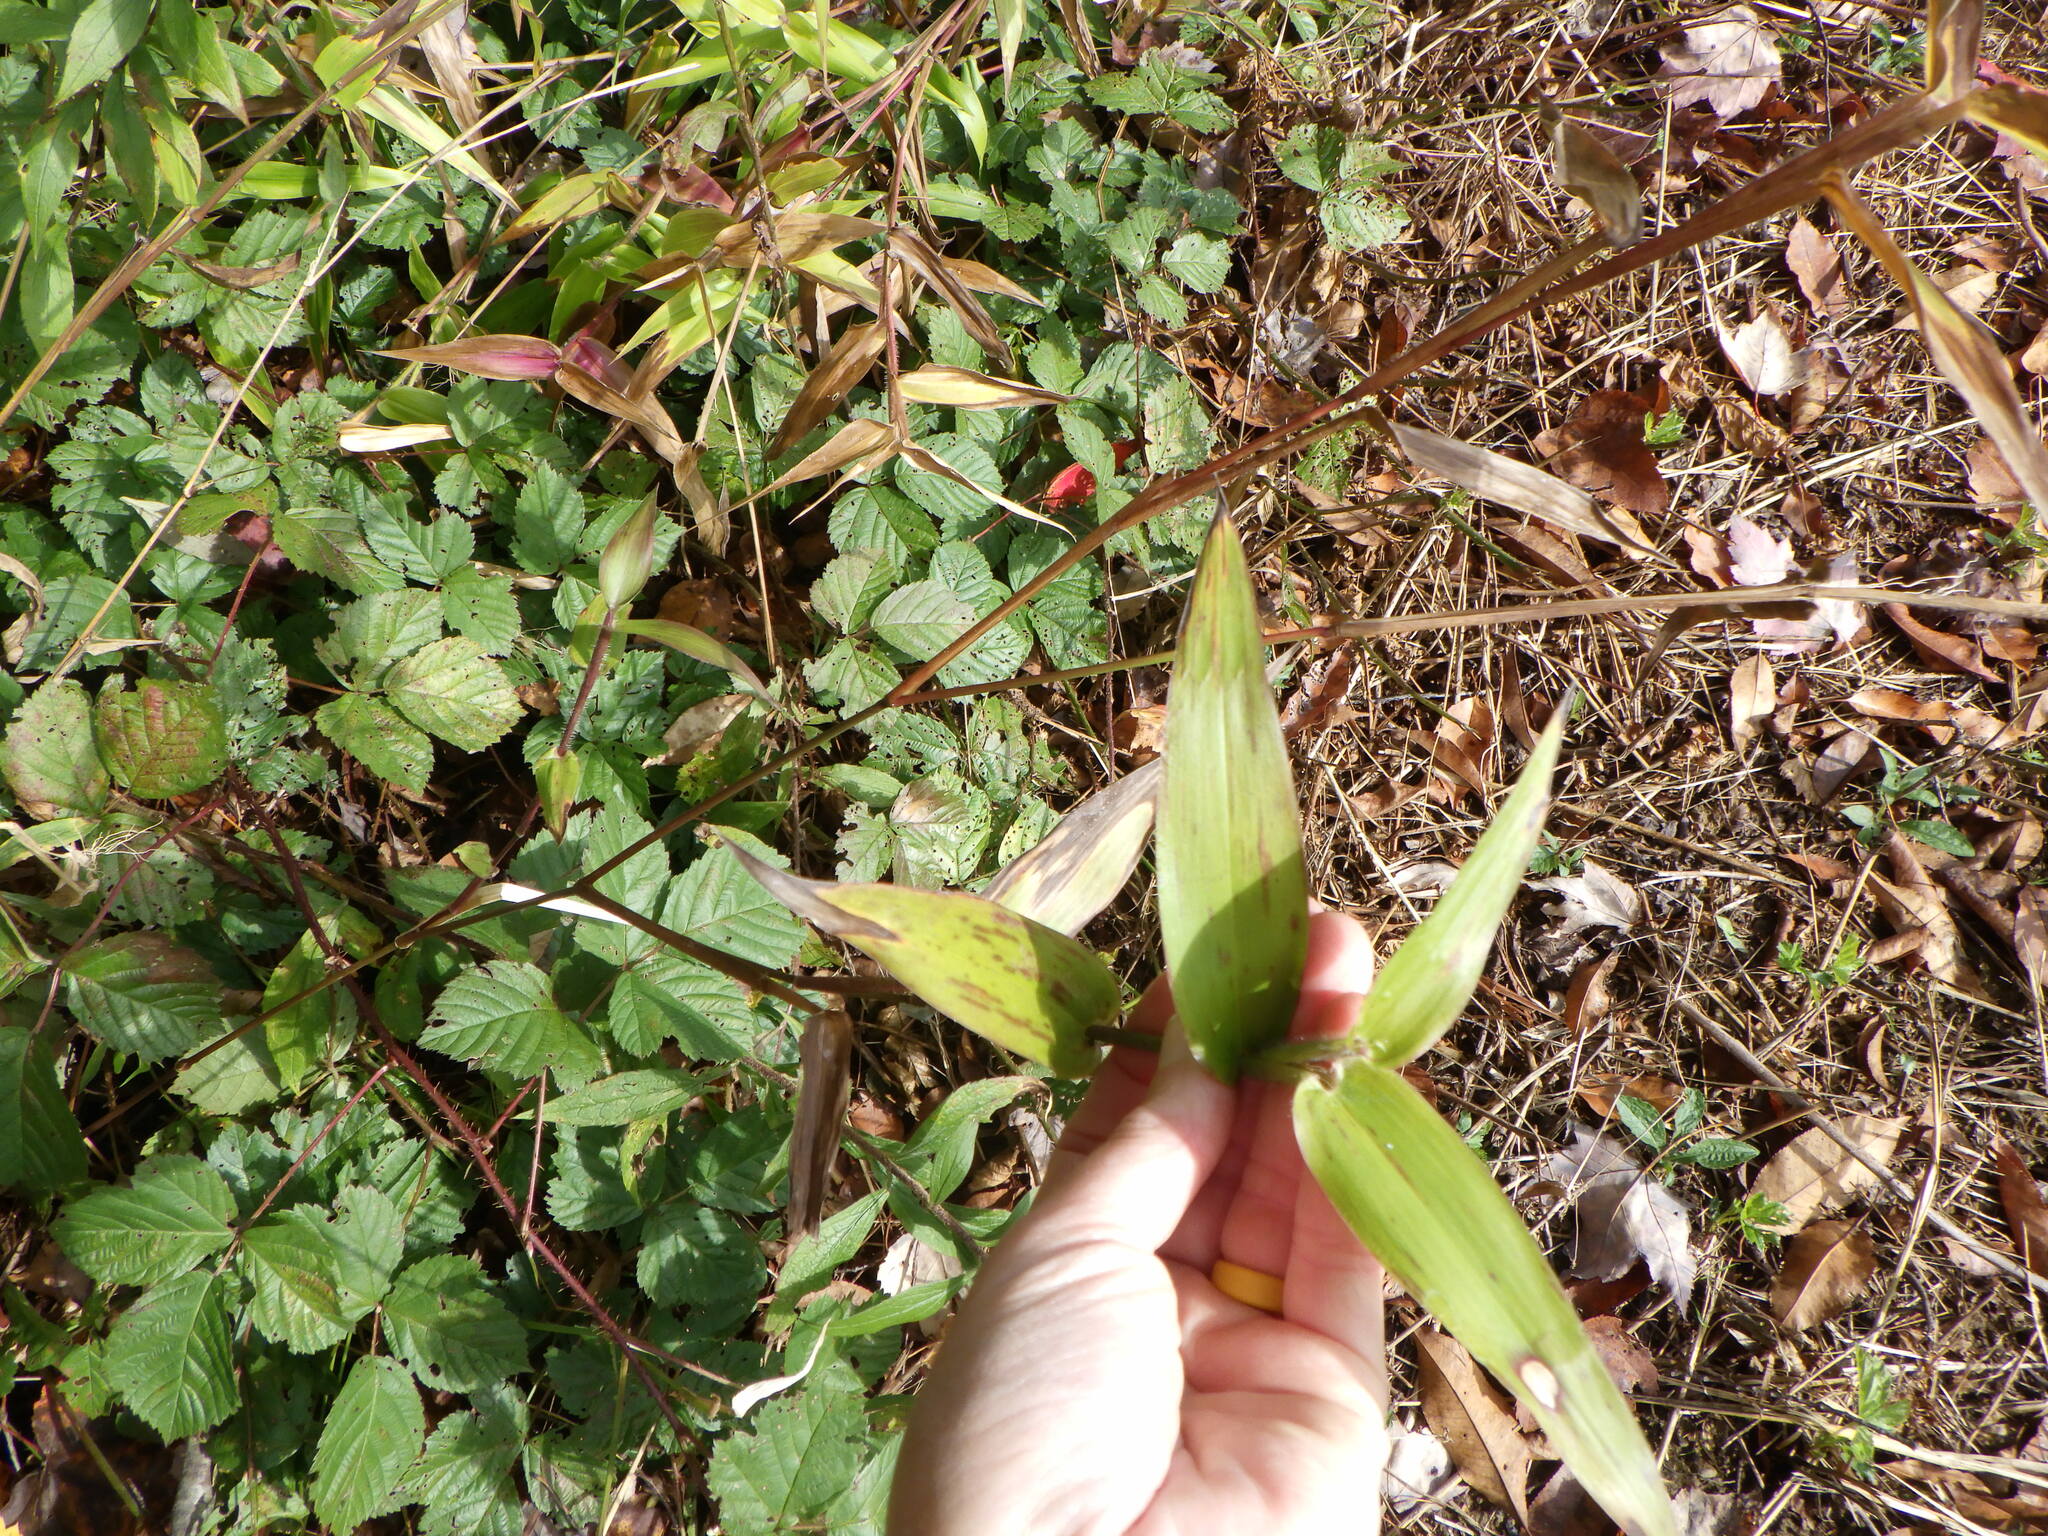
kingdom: Plantae
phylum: Tracheophyta
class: Liliopsida
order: Poales
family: Poaceae
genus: Dichanthelium
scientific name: Dichanthelium clandestinum
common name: Deer-tongue grass
